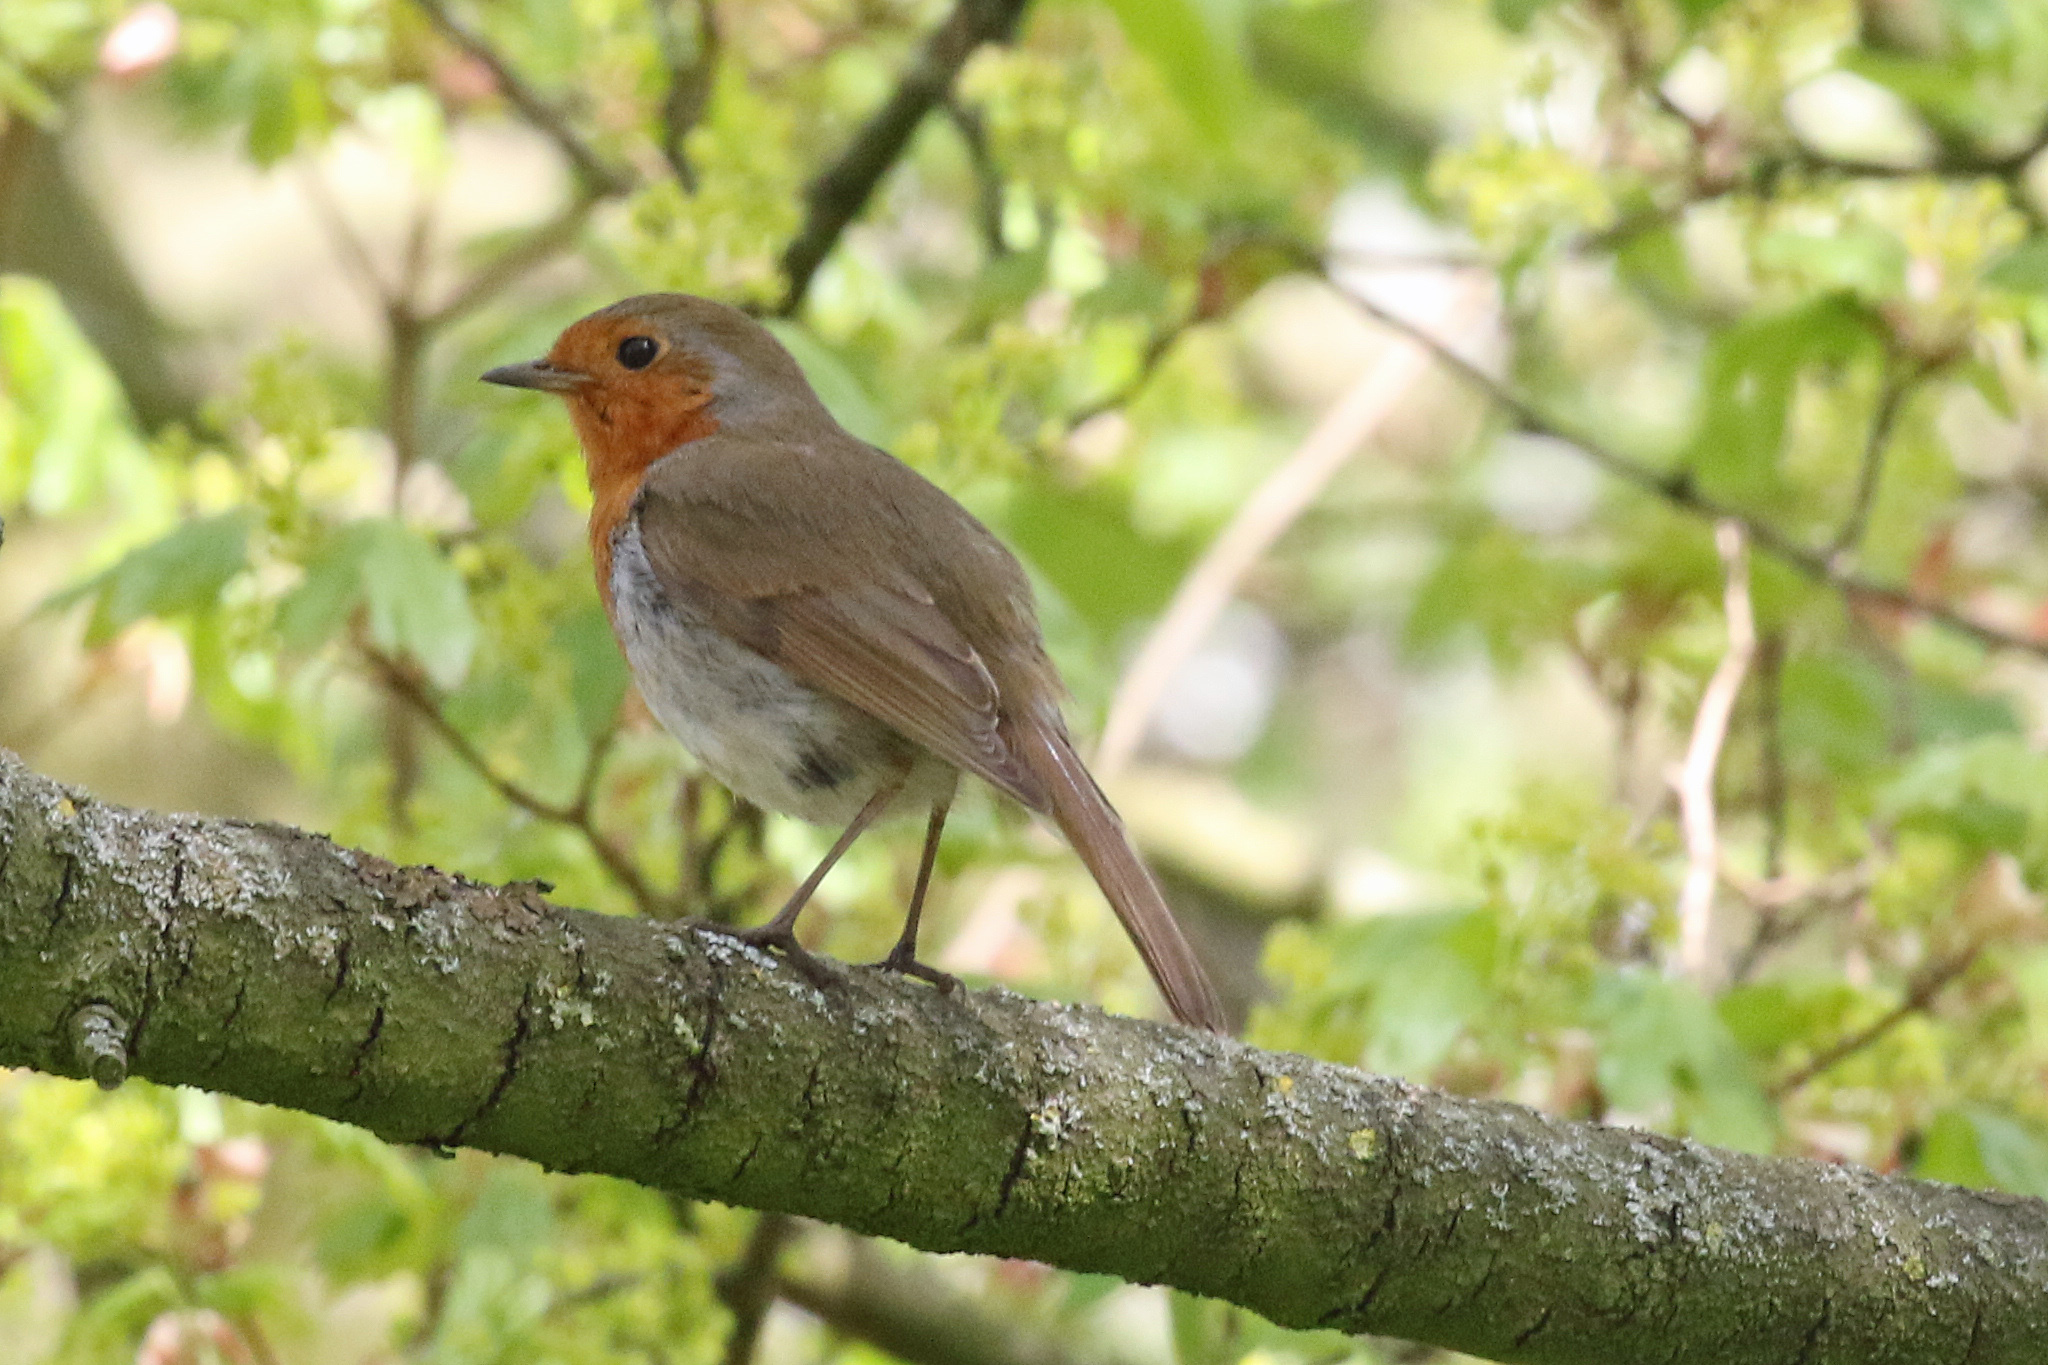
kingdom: Animalia
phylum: Chordata
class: Aves
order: Passeriformes
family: Muscicapidae
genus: Erithacus
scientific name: Erithacus rubecula
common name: European robin
